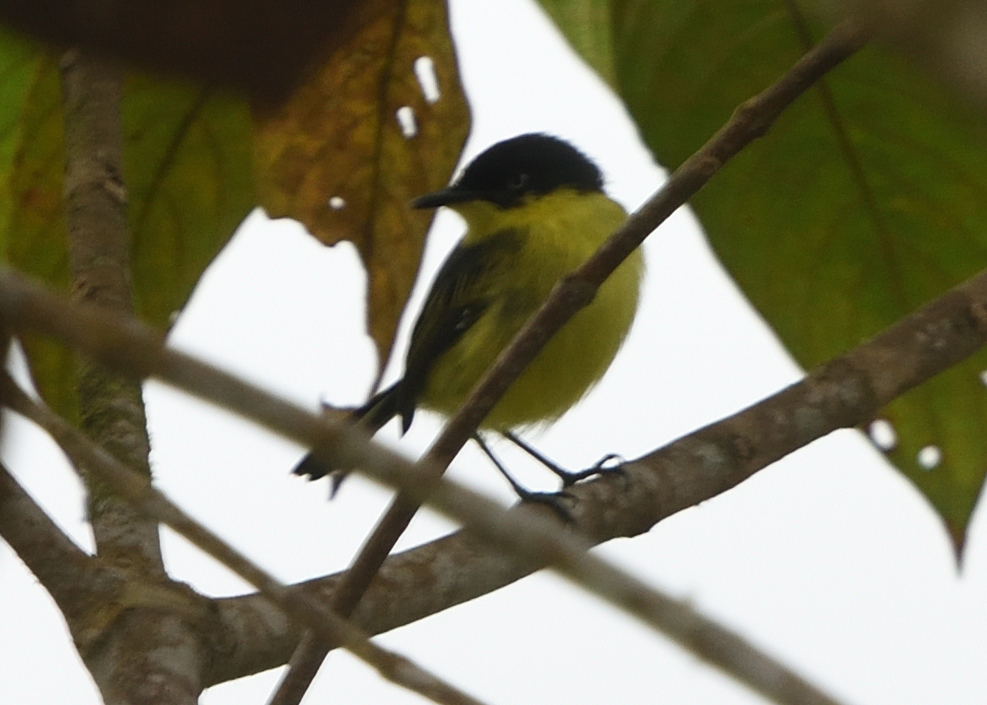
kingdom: Animalia
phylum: Chordata
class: Aves
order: Passeriformes
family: Tyrannidae
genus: Todirostrum
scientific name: Todirostrum cinereum
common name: Common tody-flycatcher
